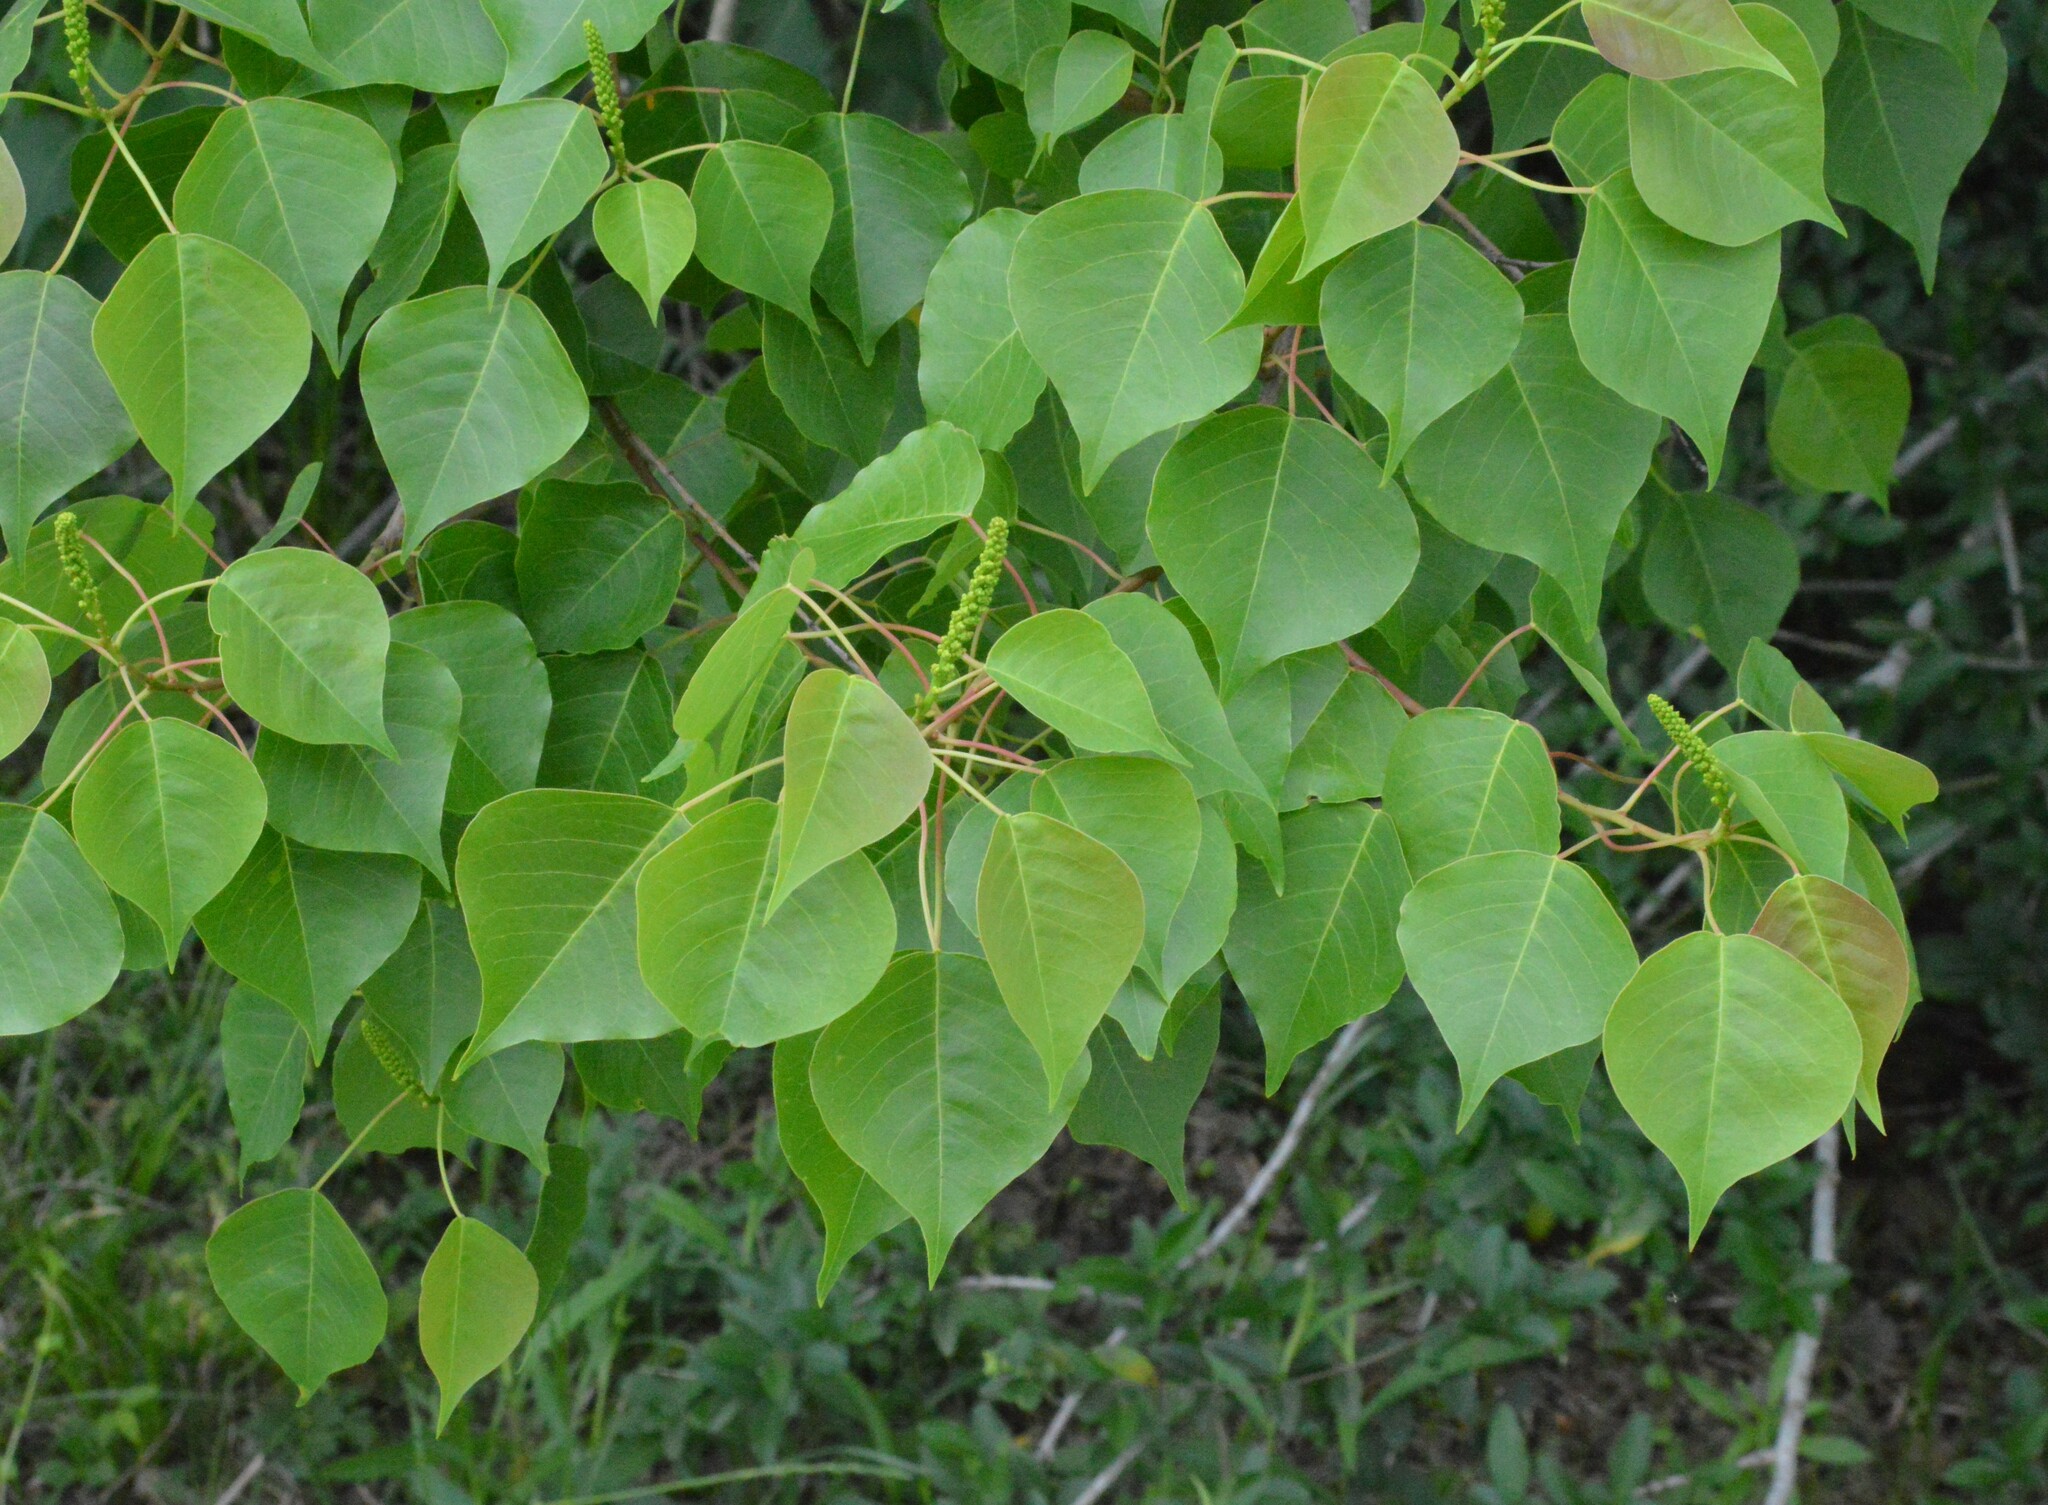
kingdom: Plantae
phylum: Tracheophyta
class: Magnoliopsida
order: Malpighiales
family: Euphorbiaceae
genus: Triadica
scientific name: Triadica sebifera
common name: Chinese tallow
